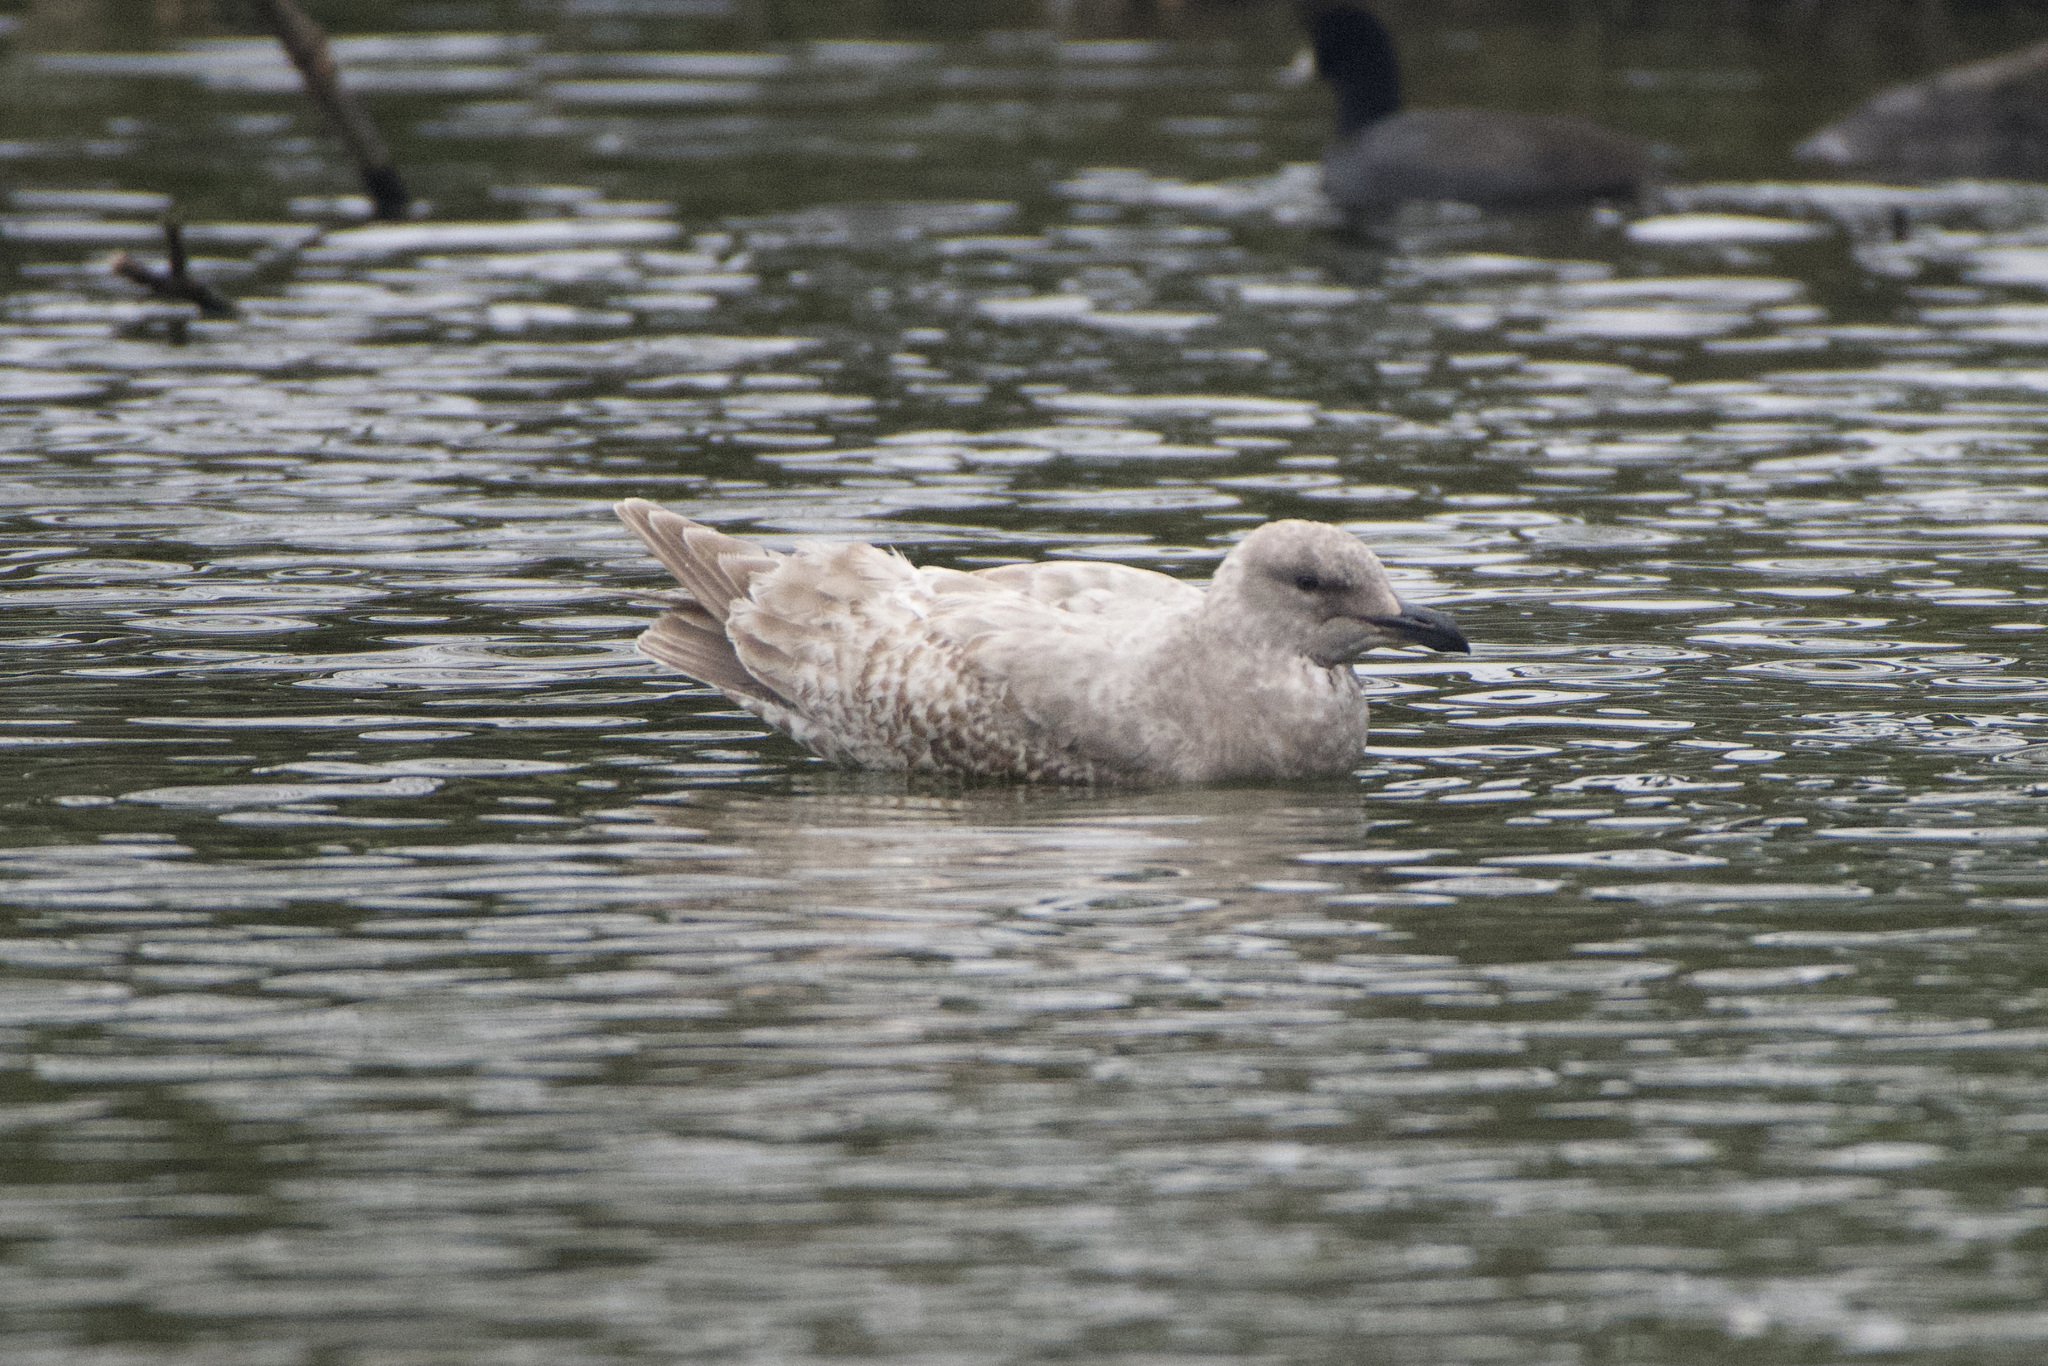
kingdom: Animalia
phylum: Chordata
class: Aves
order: Charadriiformes
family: Laridae
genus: Larus
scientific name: Larus
